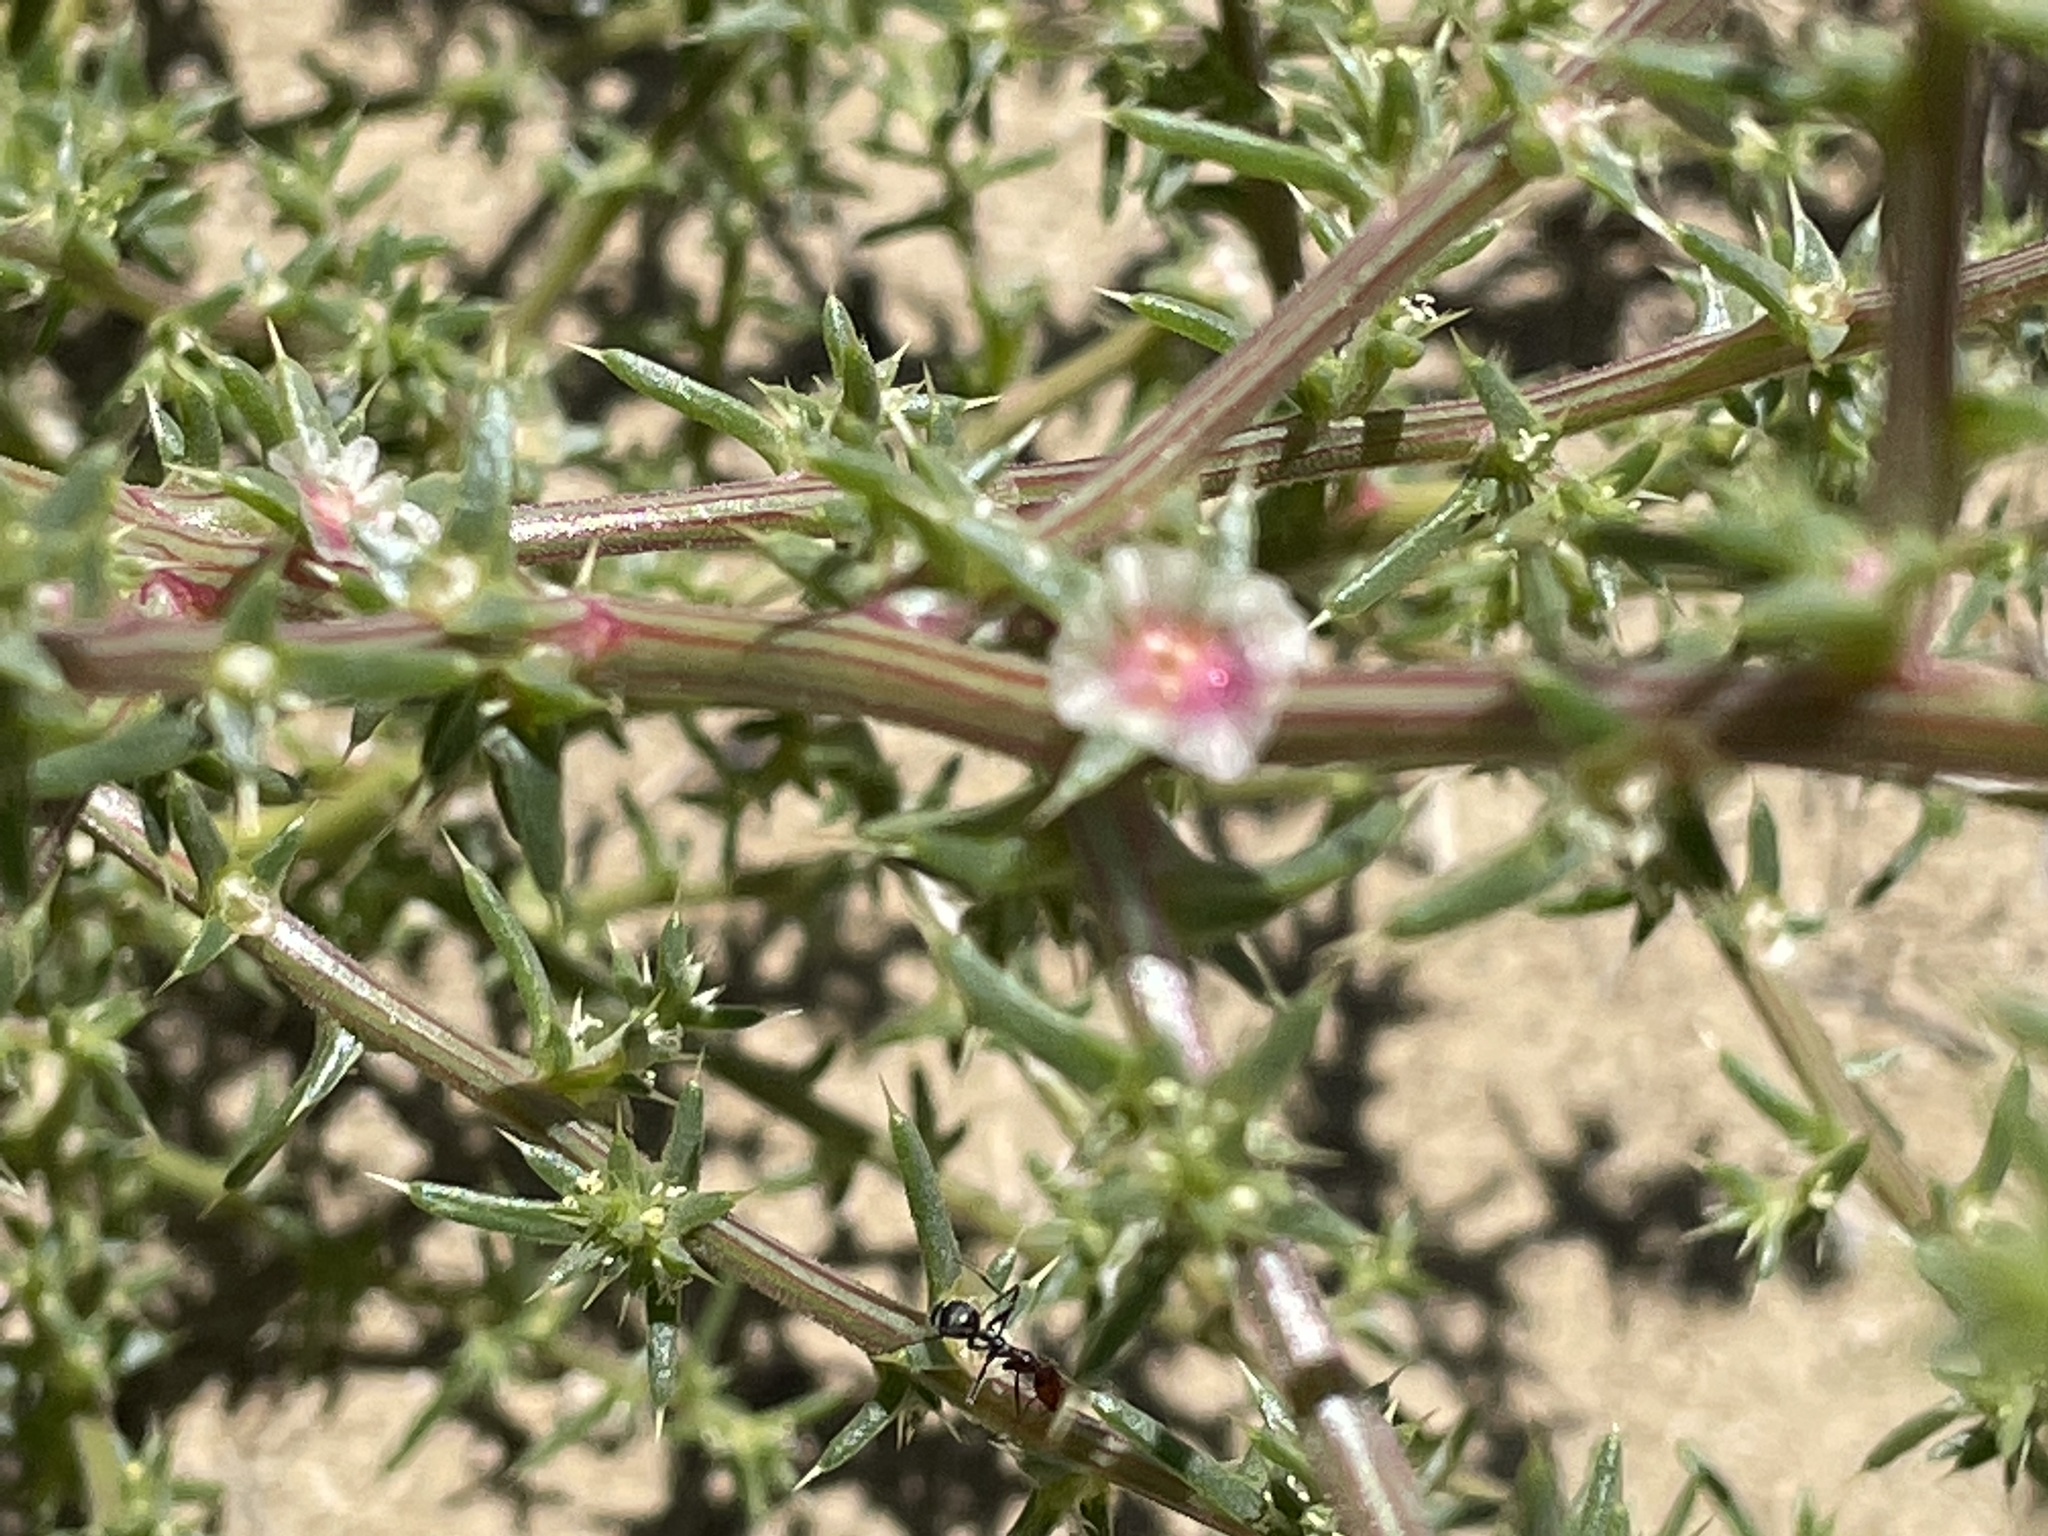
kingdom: Plantae
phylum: Tracheophyta
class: Magnoliopsida
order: Caryophyllales
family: Amaranthaceae
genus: Salsola
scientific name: Salsola tragus
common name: Prickly russian thistle
